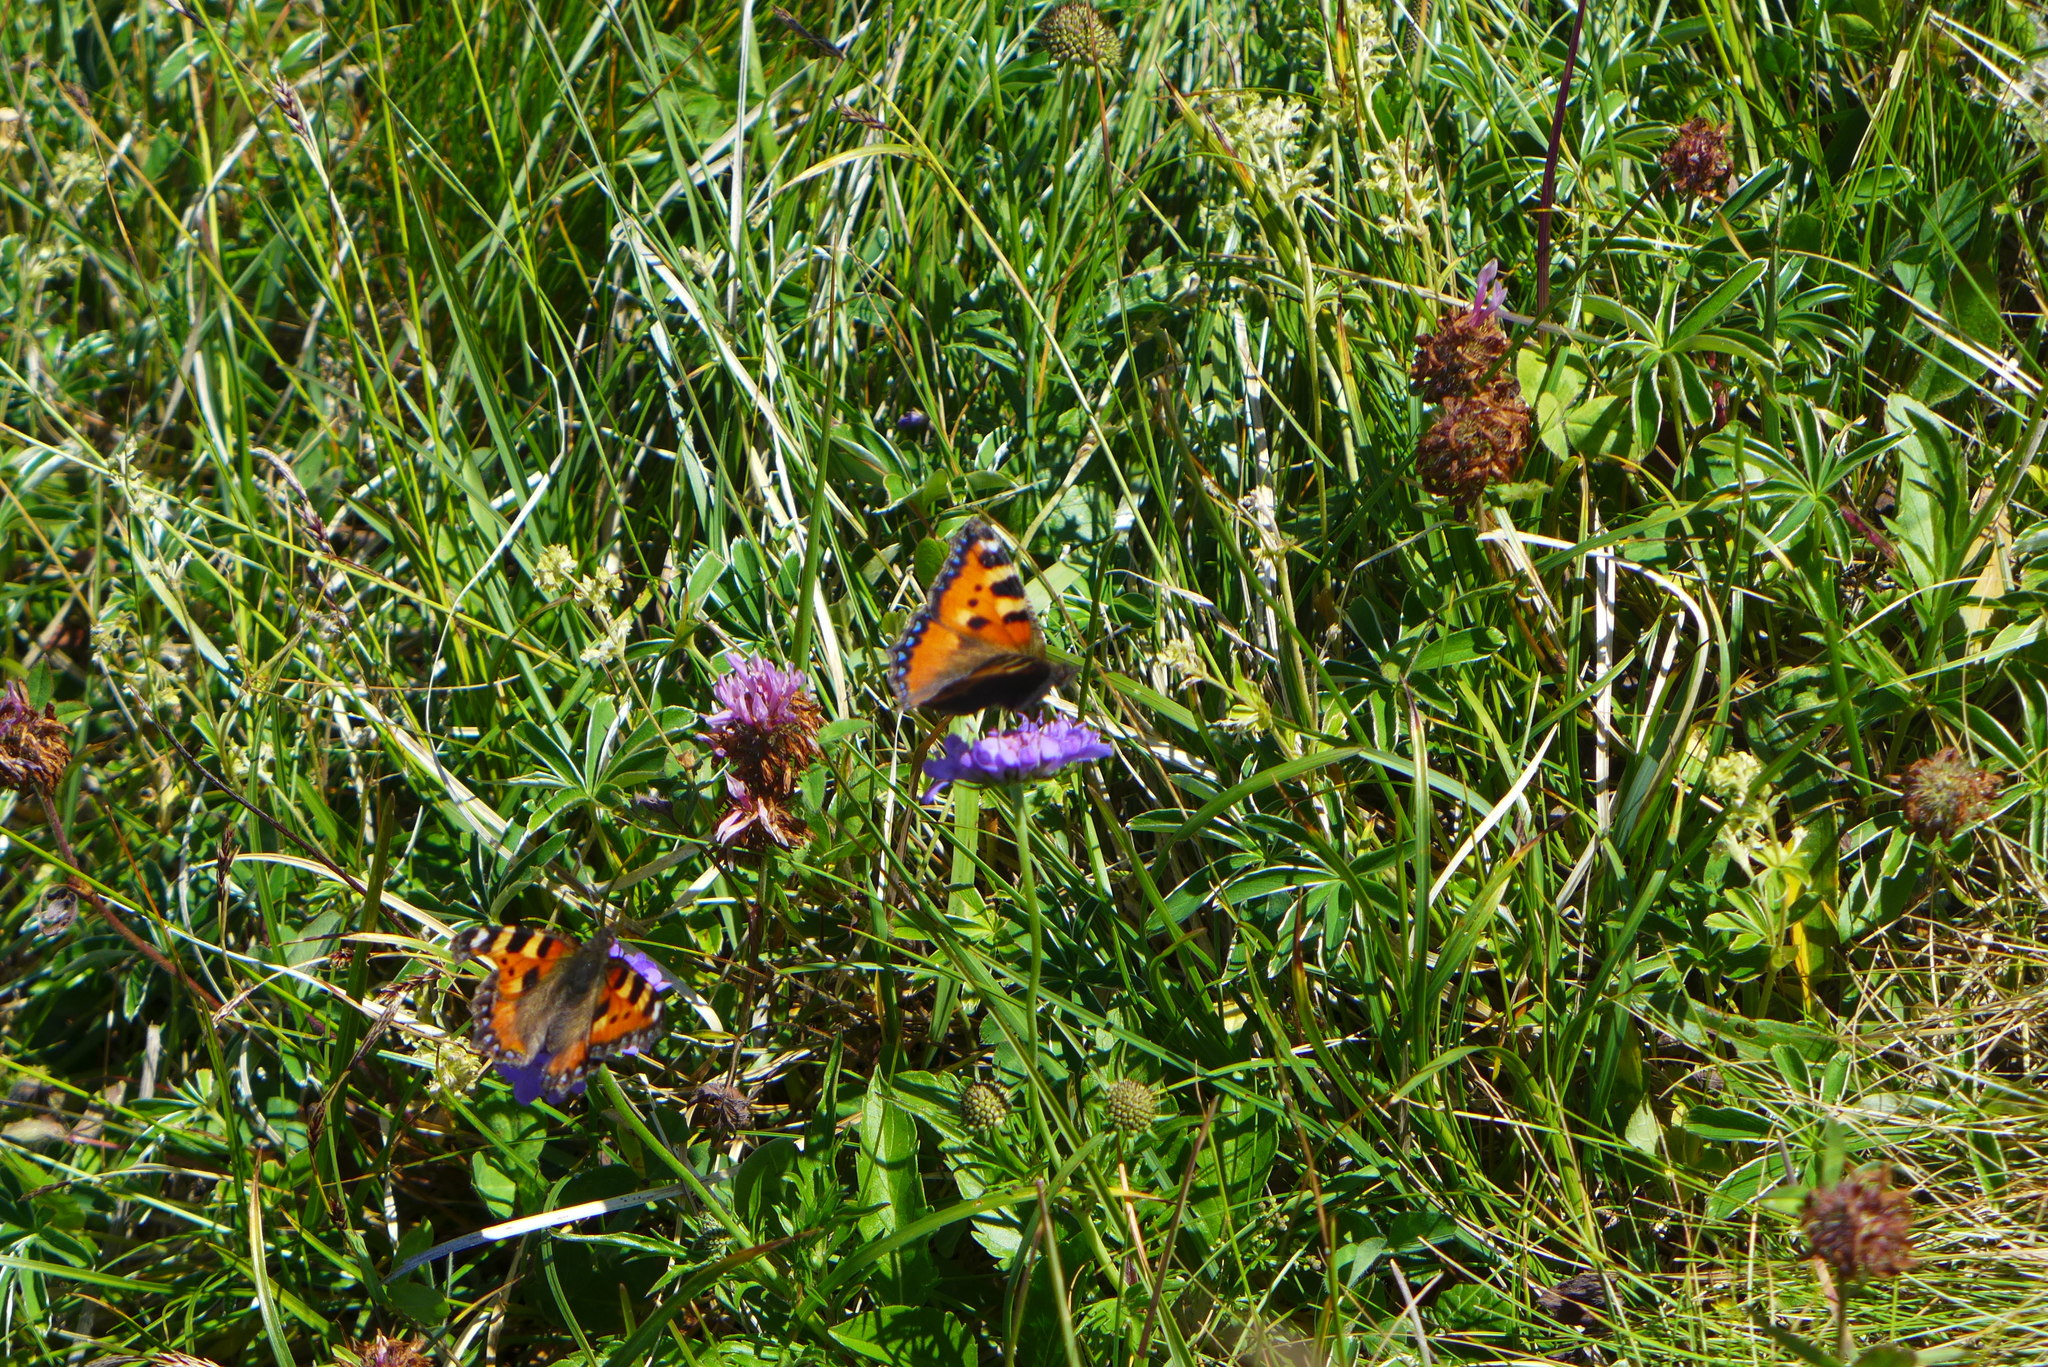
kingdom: Animalia
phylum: Arthropoda
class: Insecta
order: Lepidoptera
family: Nymphalidae
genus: Aglais
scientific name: Aglais urticae
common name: Small tortoiseshell
